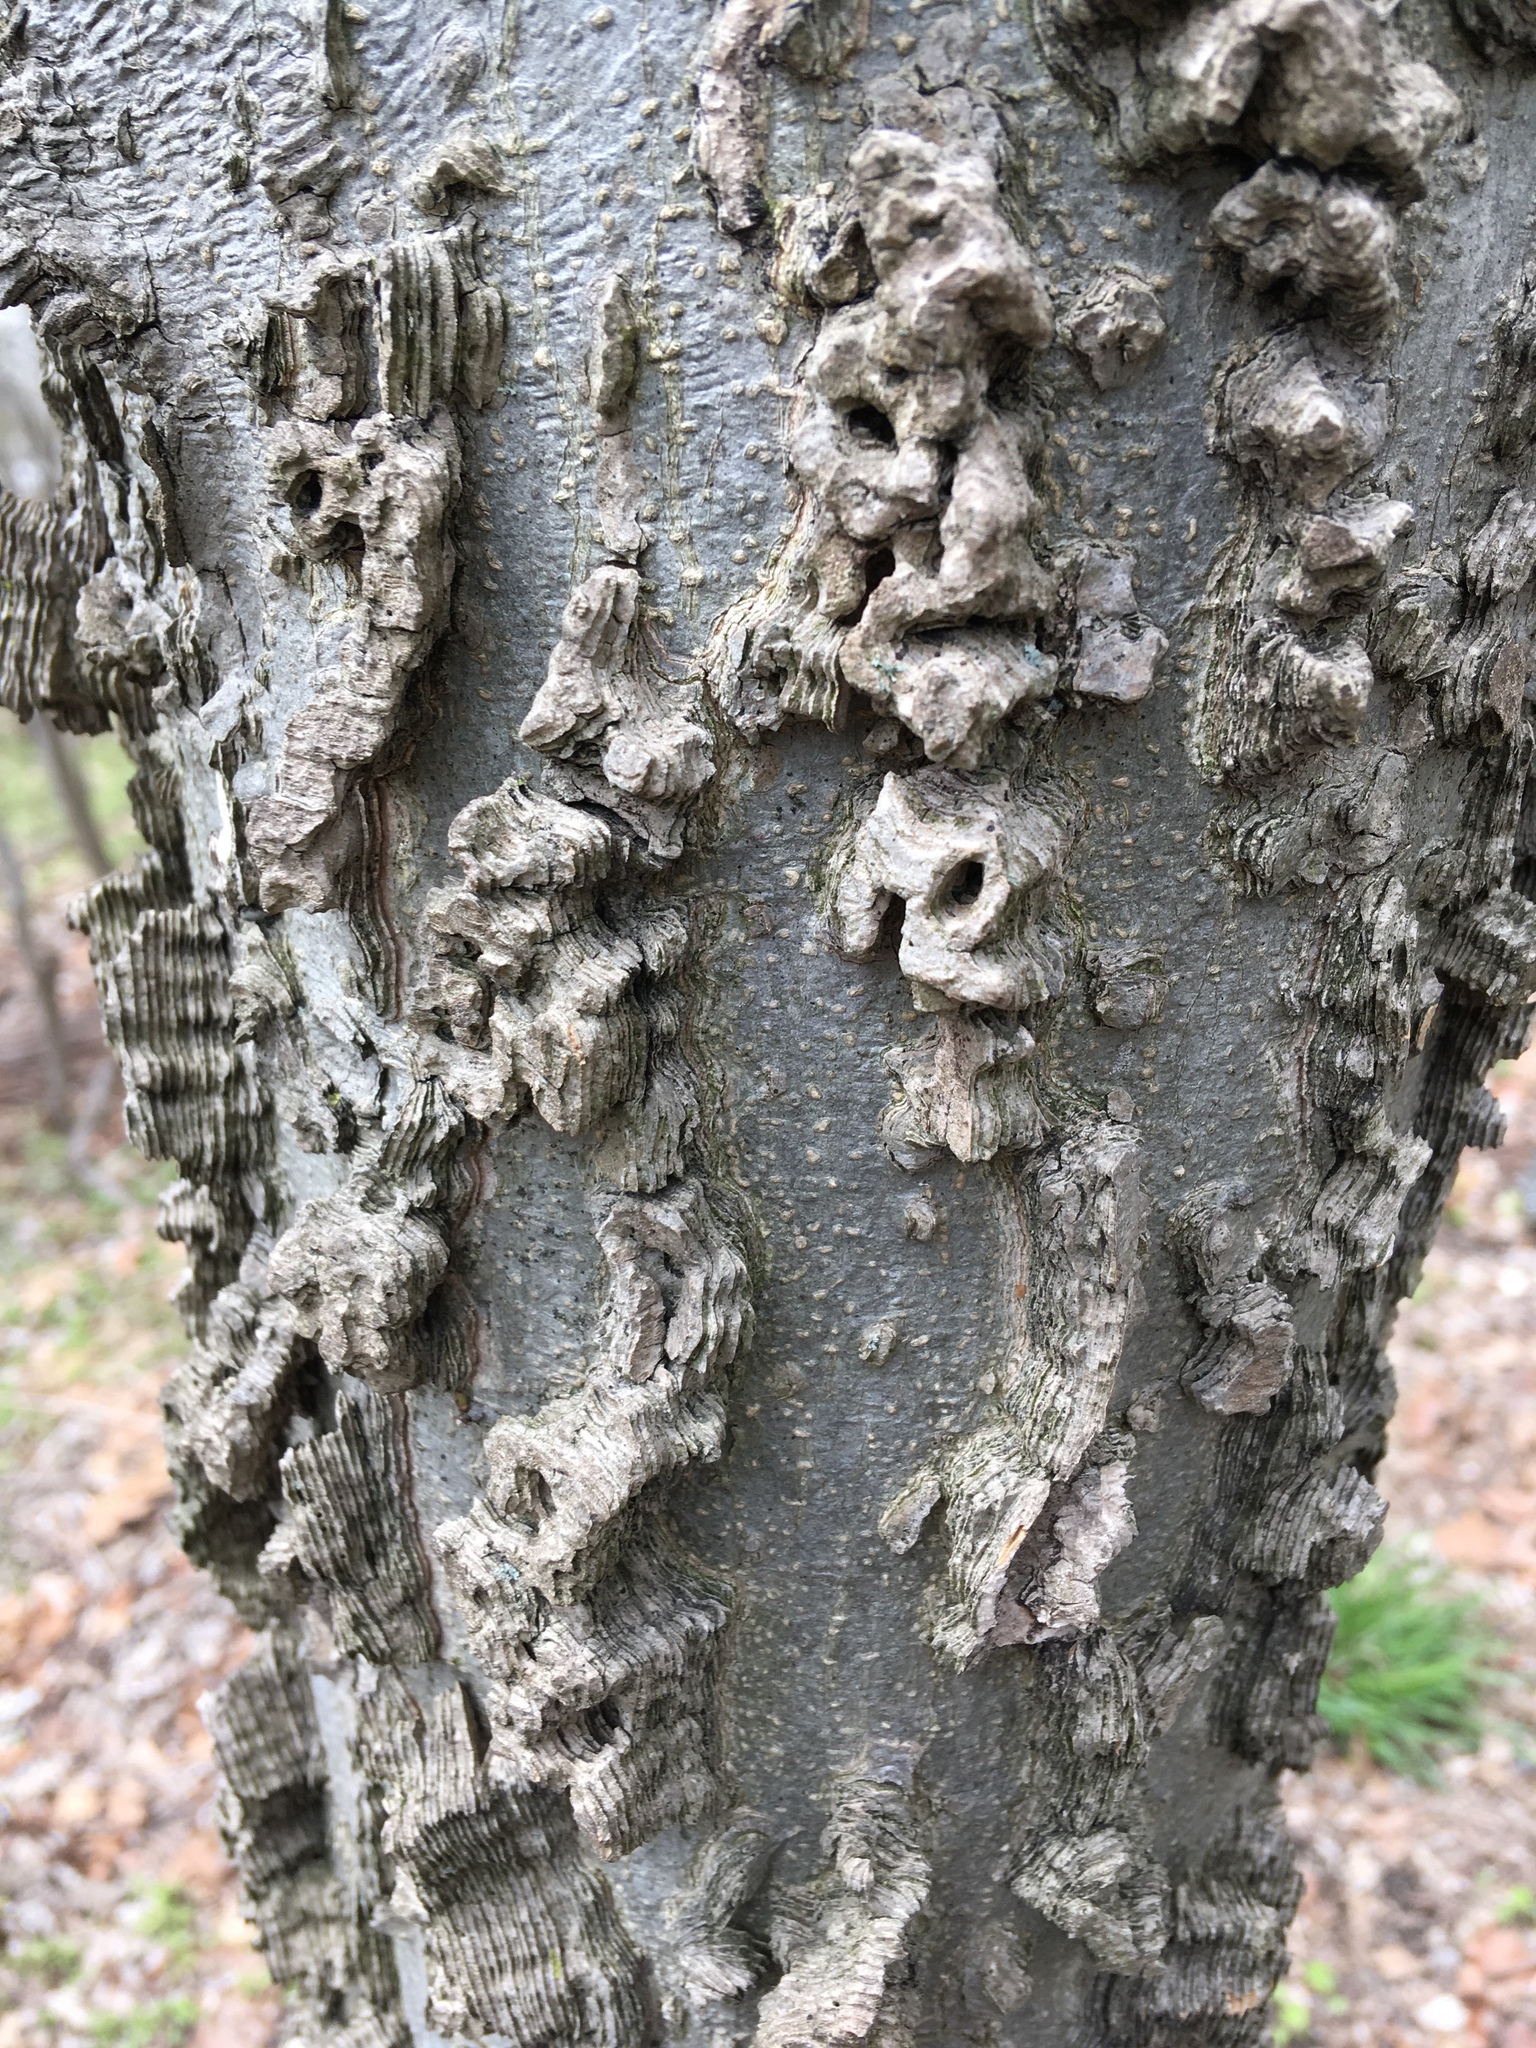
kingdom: Plantae
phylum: Tracheophyta
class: Magnoliopsida
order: Rosales
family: Cannabaceae
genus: Celtis
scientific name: Celtis occidentalis
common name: Common hackberry
